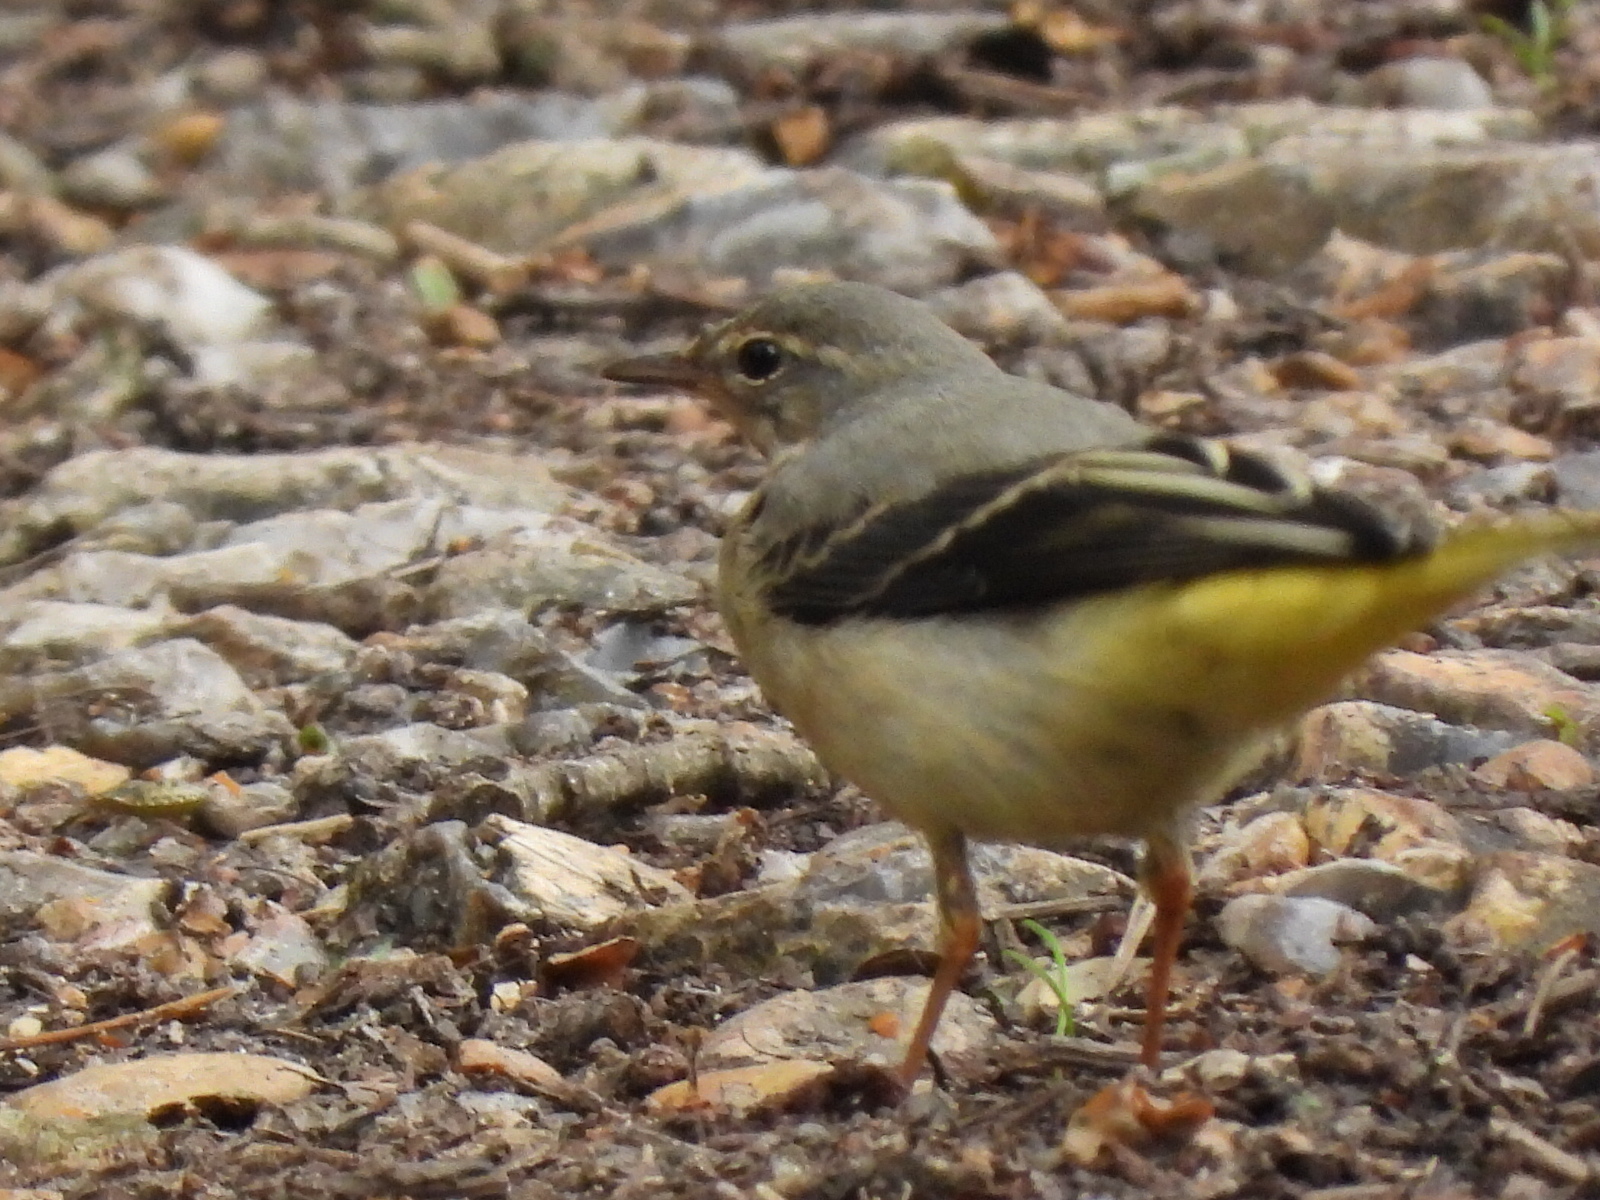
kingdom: Animalia
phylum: Chordata
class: Aves
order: Passeriformes
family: Motacillidae
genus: Motacilla
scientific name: Motacilla cinerea
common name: Grey wagtail
